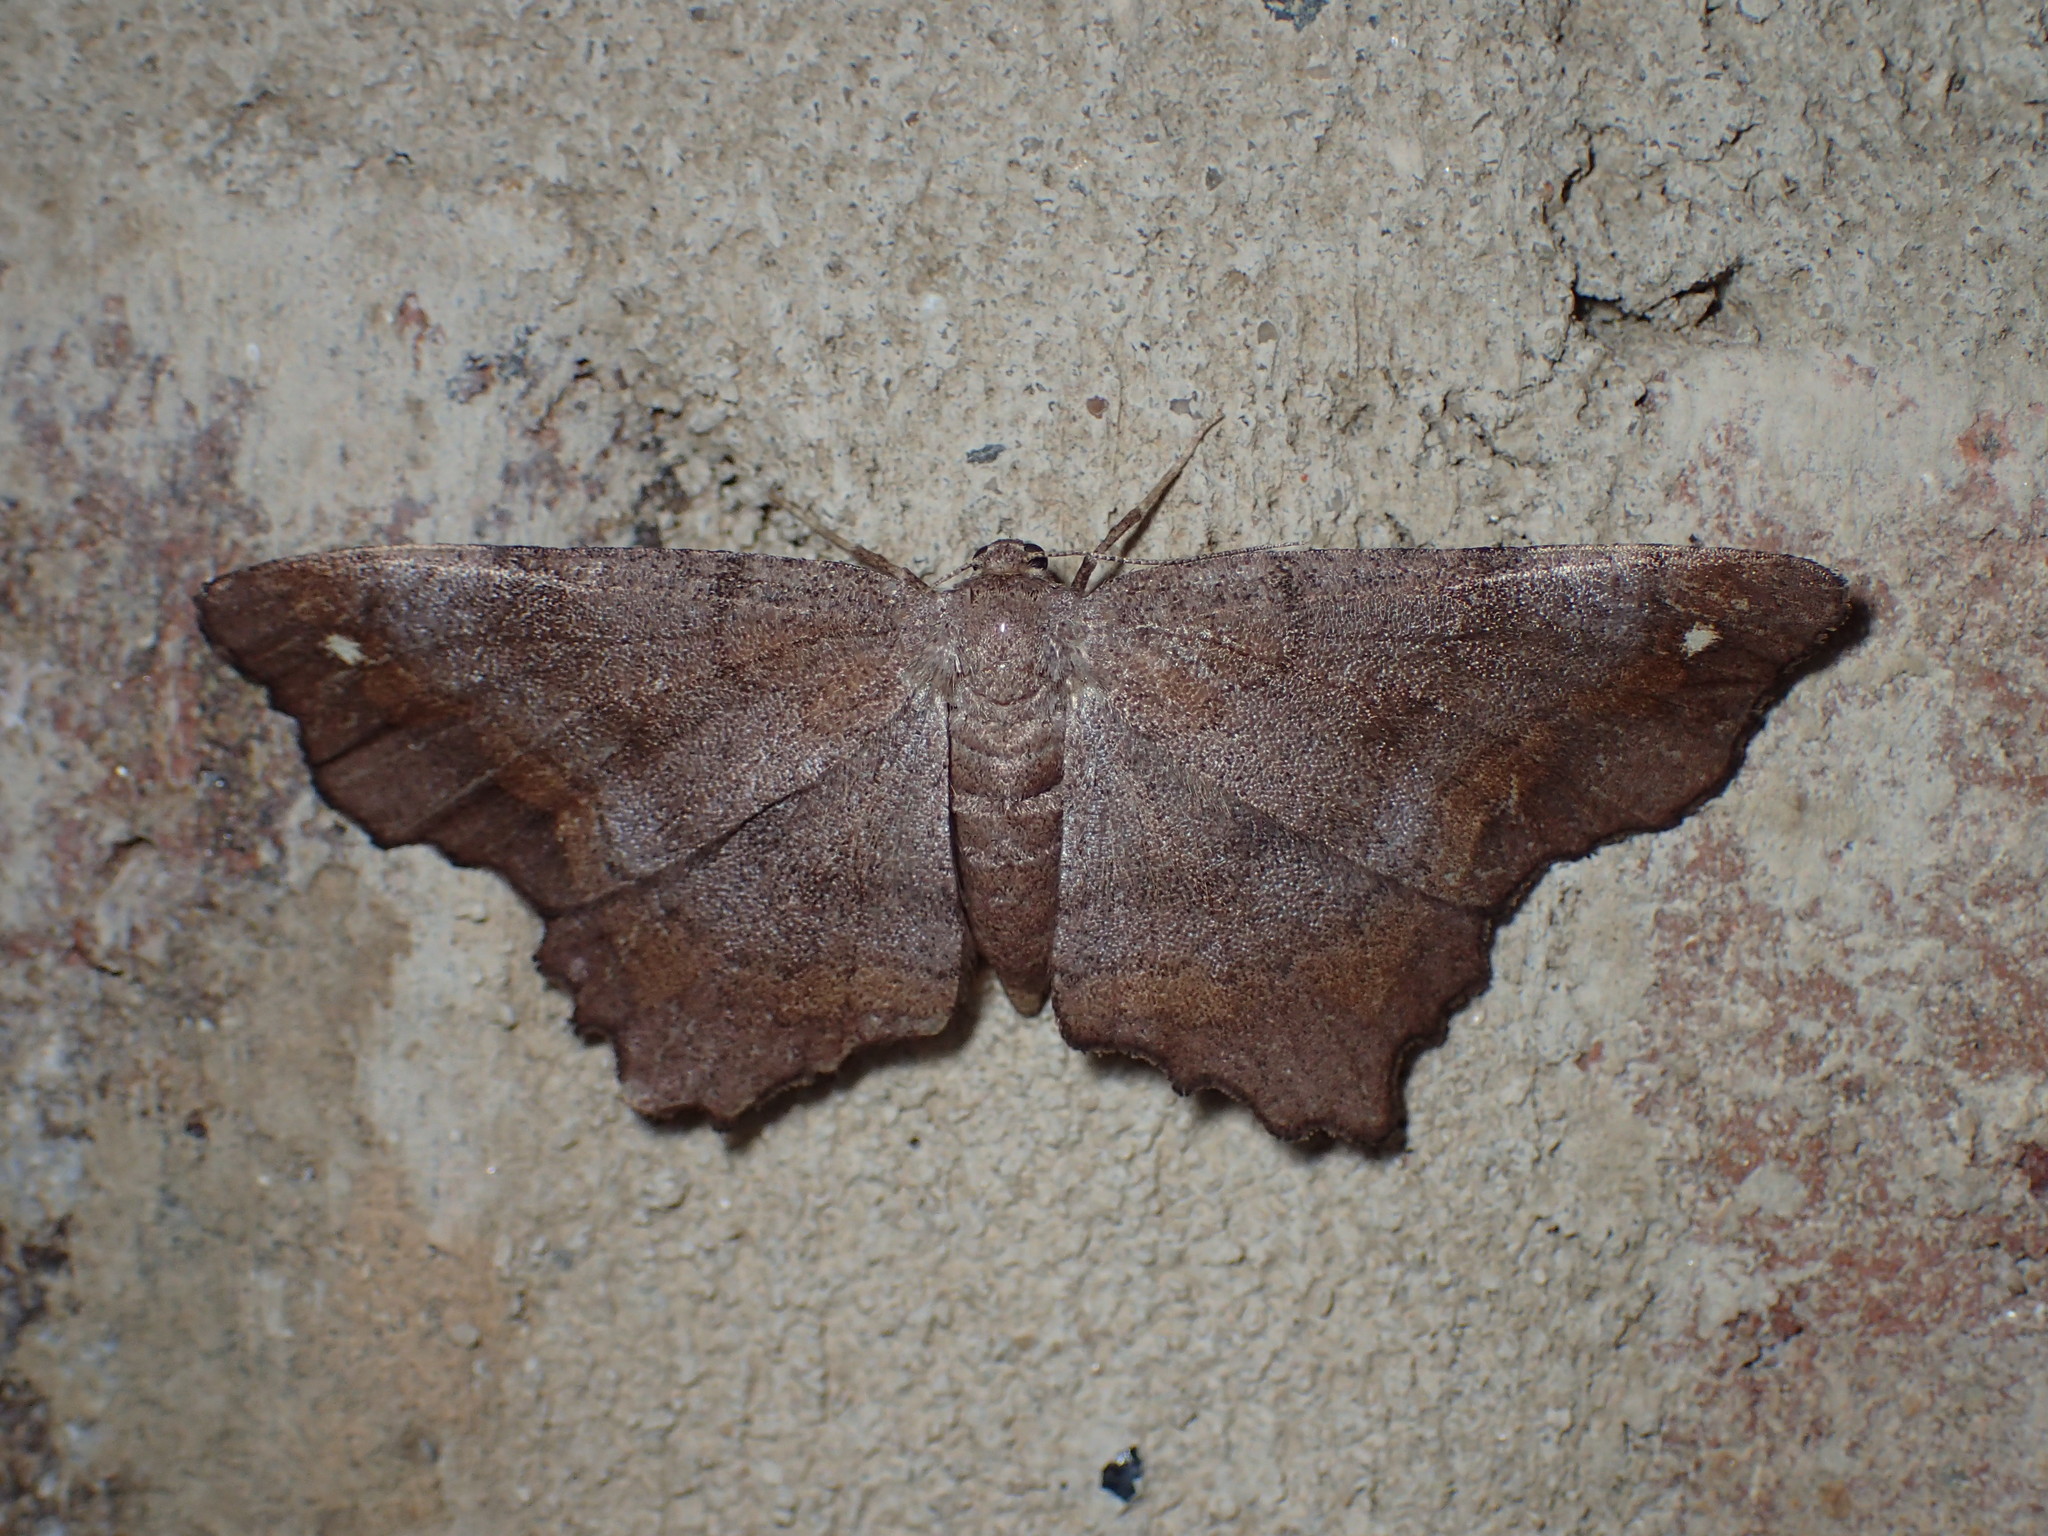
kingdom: Animalia
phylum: Arthropoda
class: Insecta
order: Lepidoptera
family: Geometridae
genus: Hypagyrtis
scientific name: Hypagyrtis unipunctata
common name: One-spotted variant
